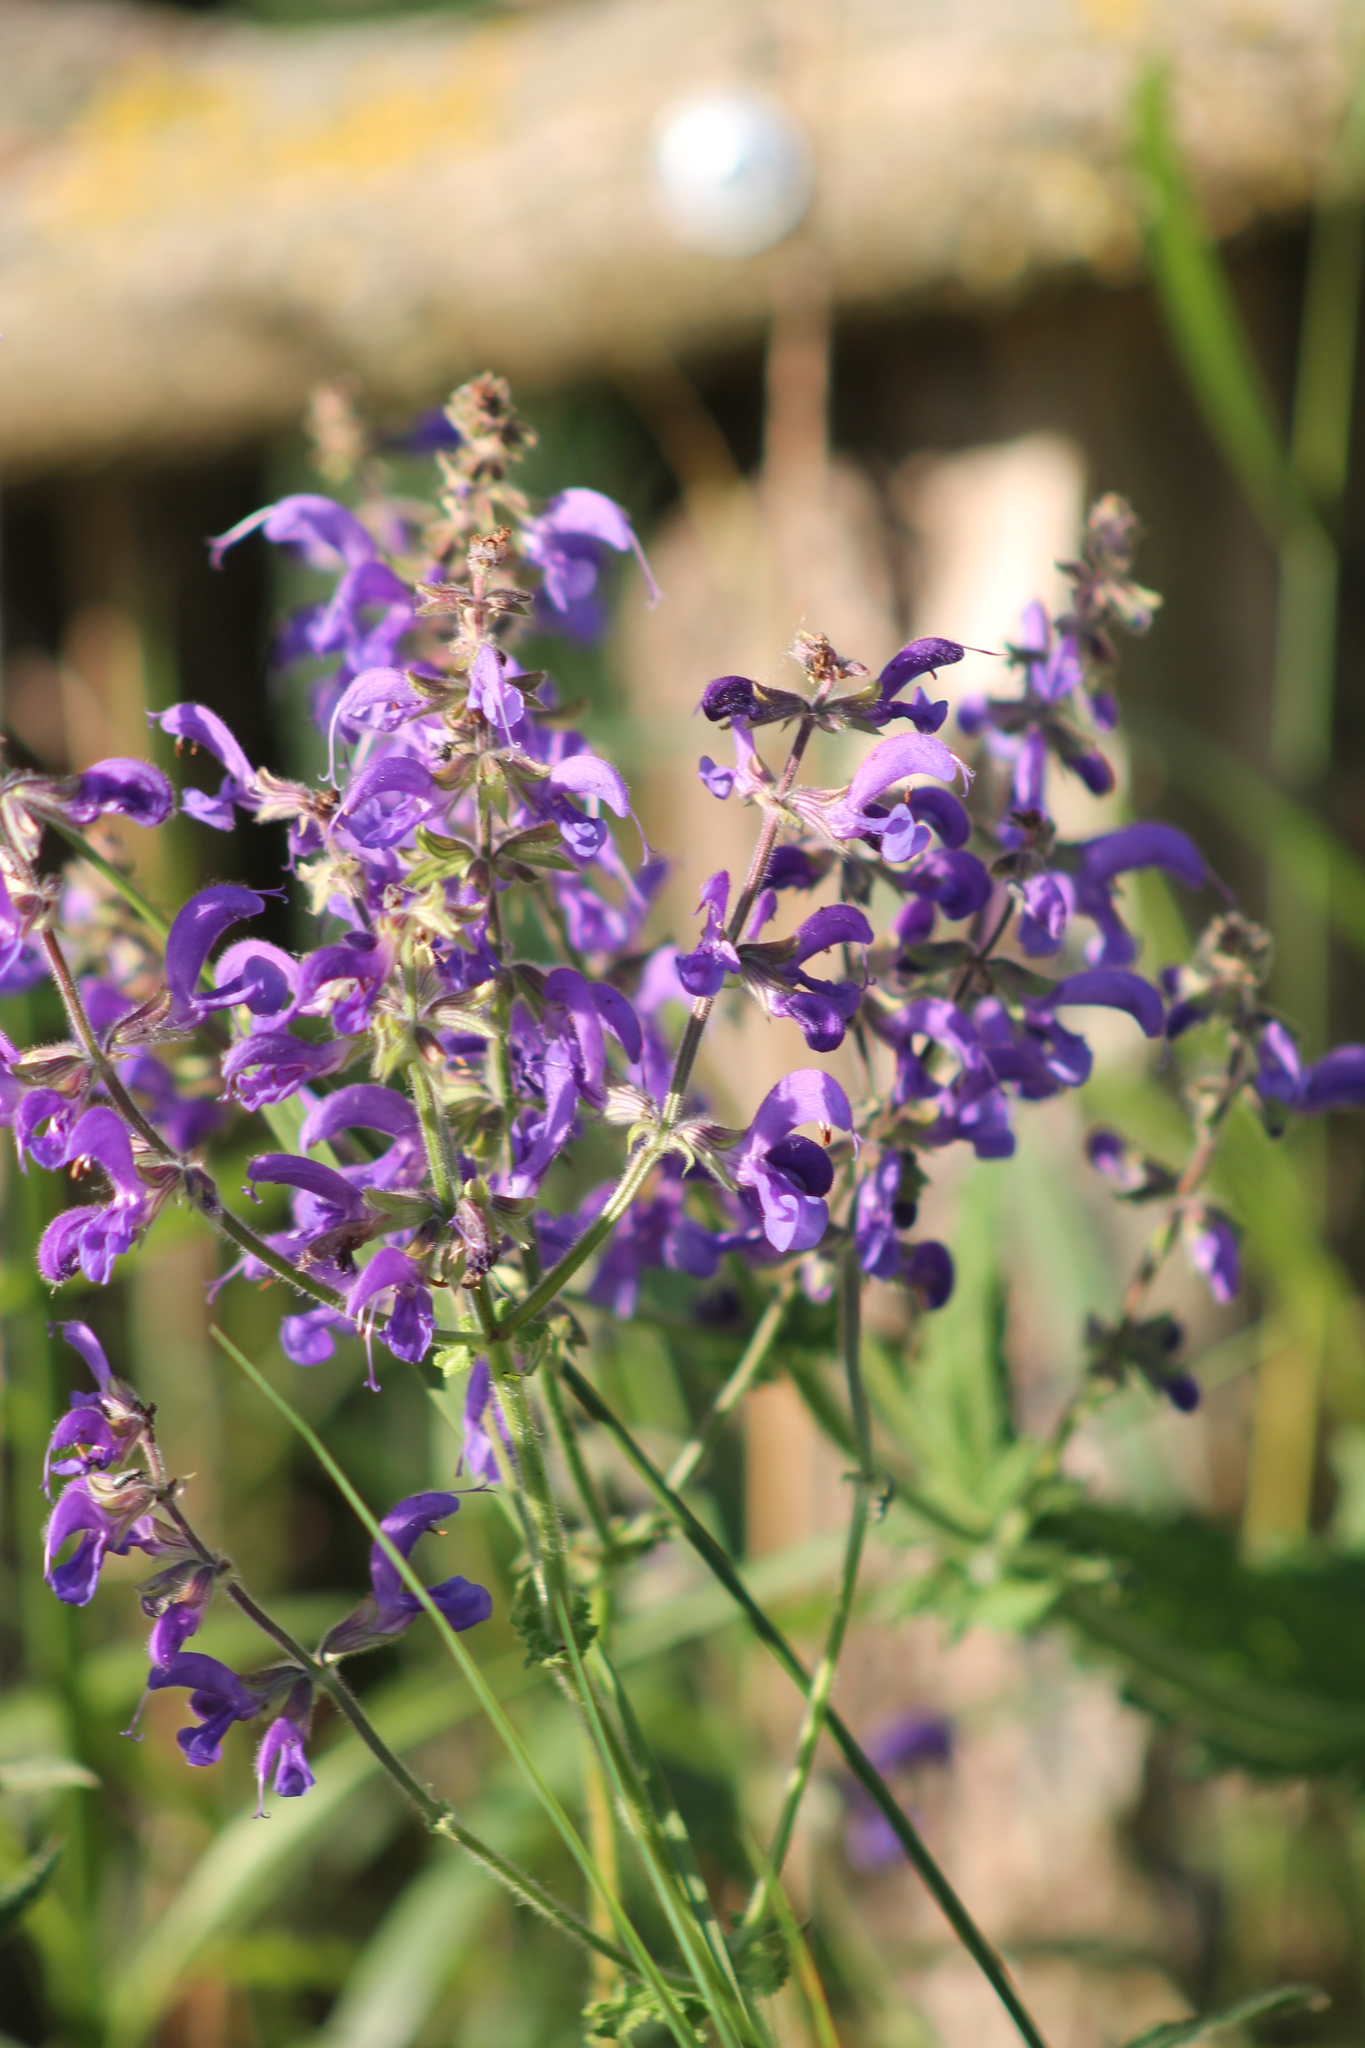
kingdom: Plantae
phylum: Tracheophyta
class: Magnoliopsida
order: Lamiales
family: Lamiaceae
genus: Salvia
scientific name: Salvia pratensis
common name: Meadow sage
